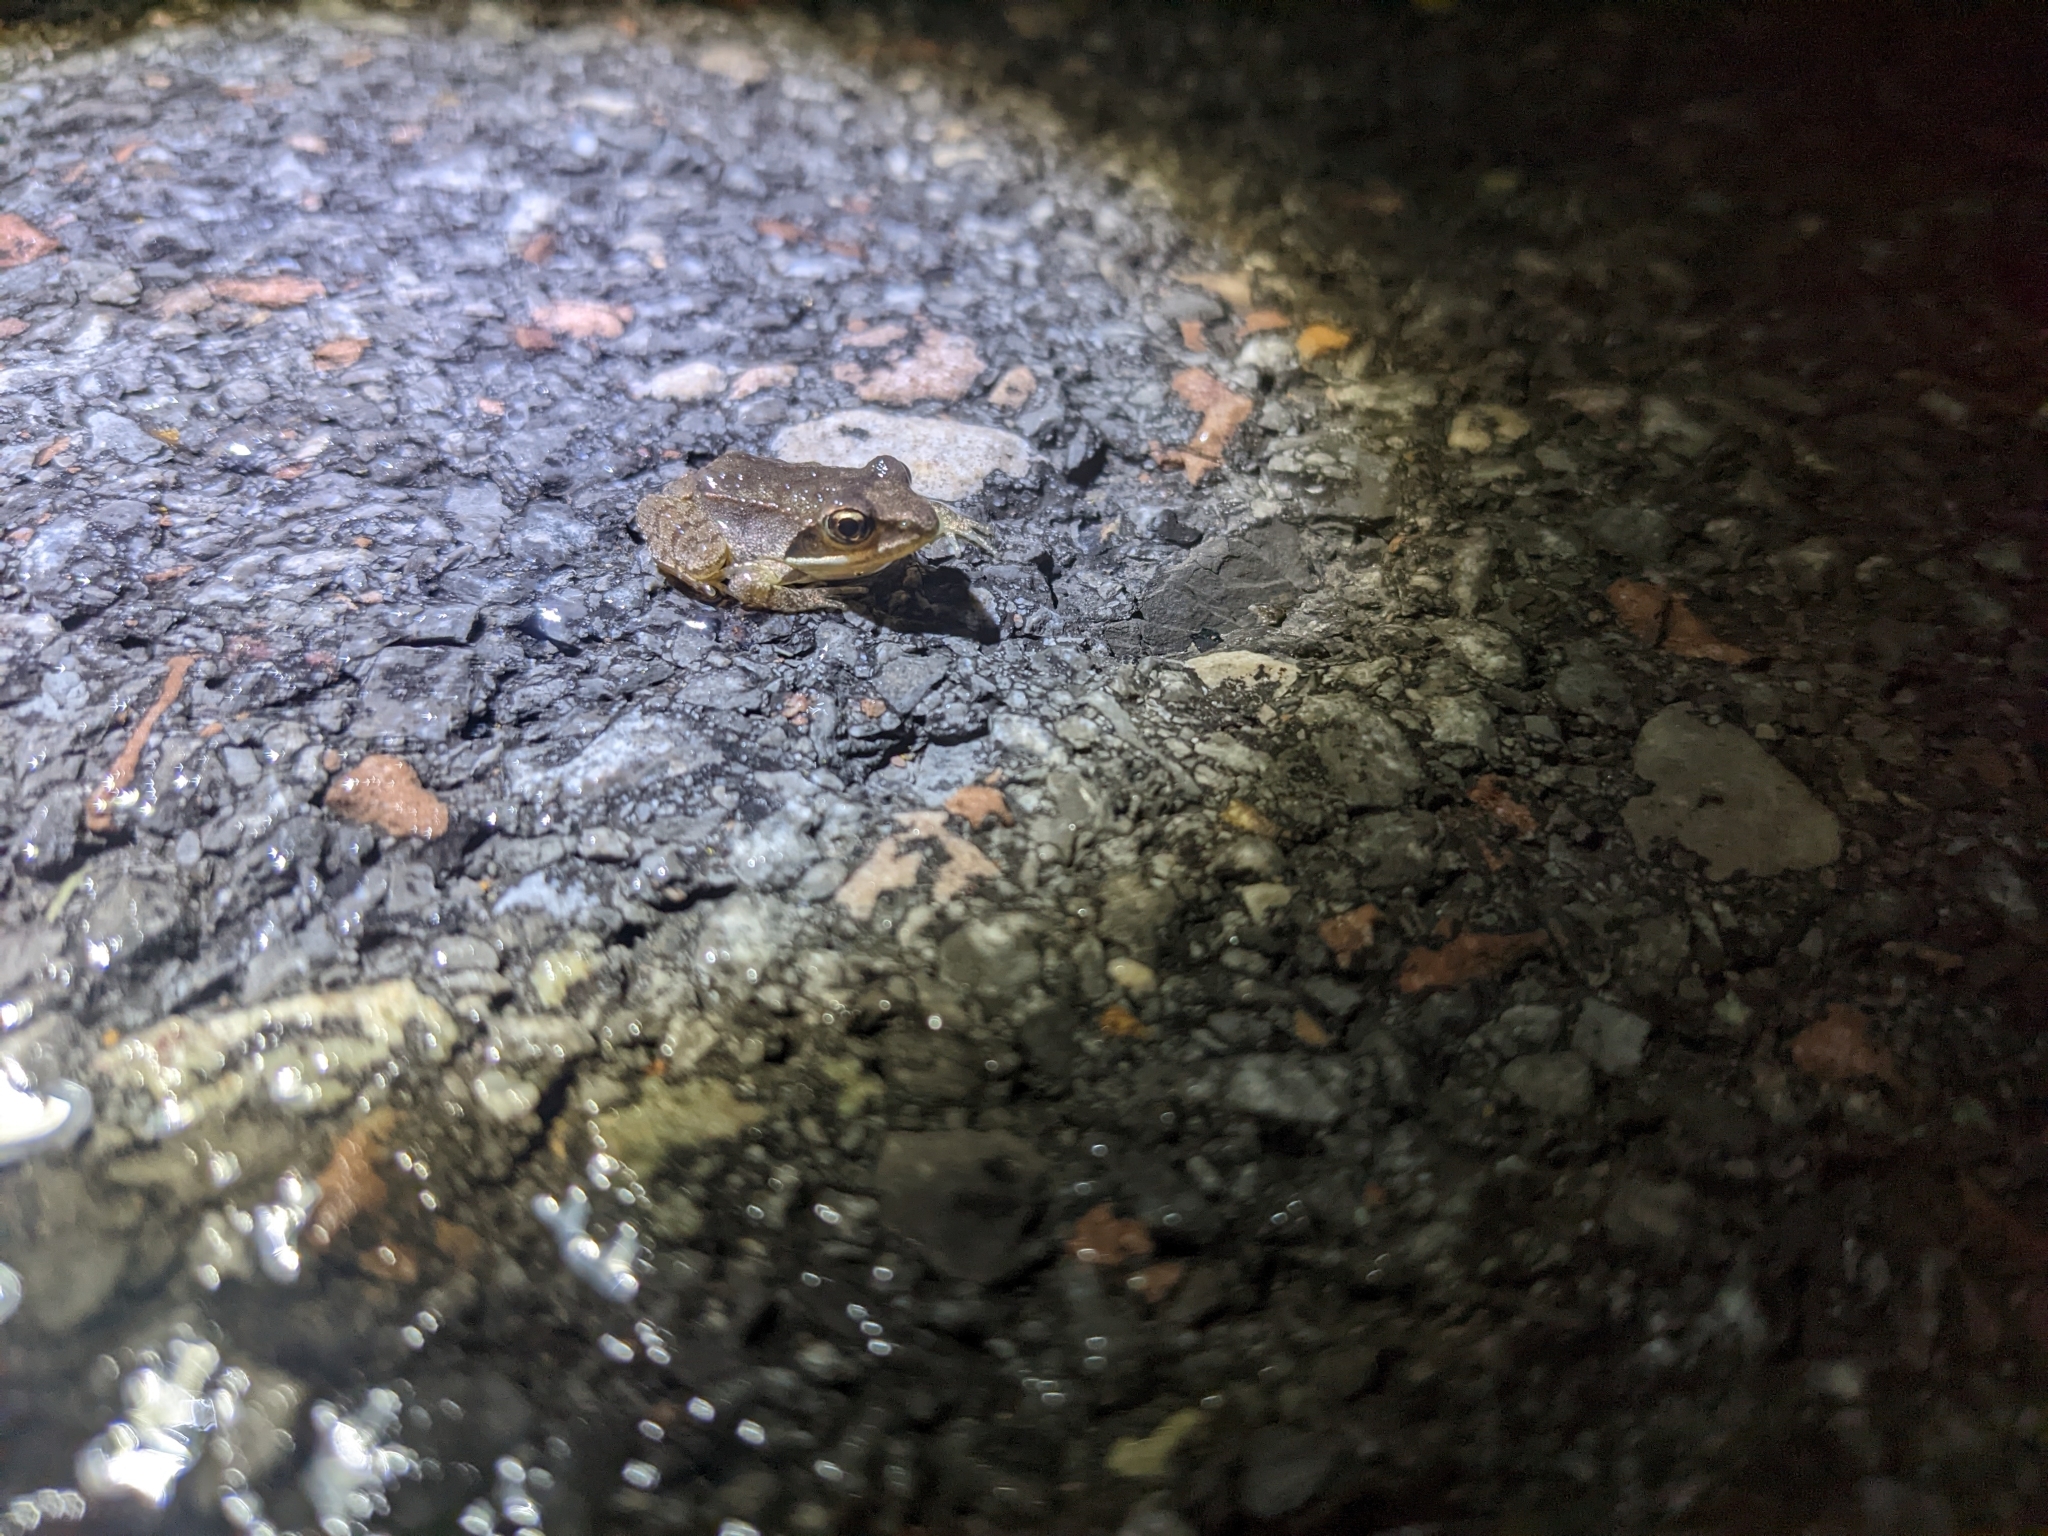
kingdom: Animalia
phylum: Chordata
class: Amphibia
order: Anura
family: Ranidae
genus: Lithobates
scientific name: Lithobates sylvaticus
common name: Wood frog
